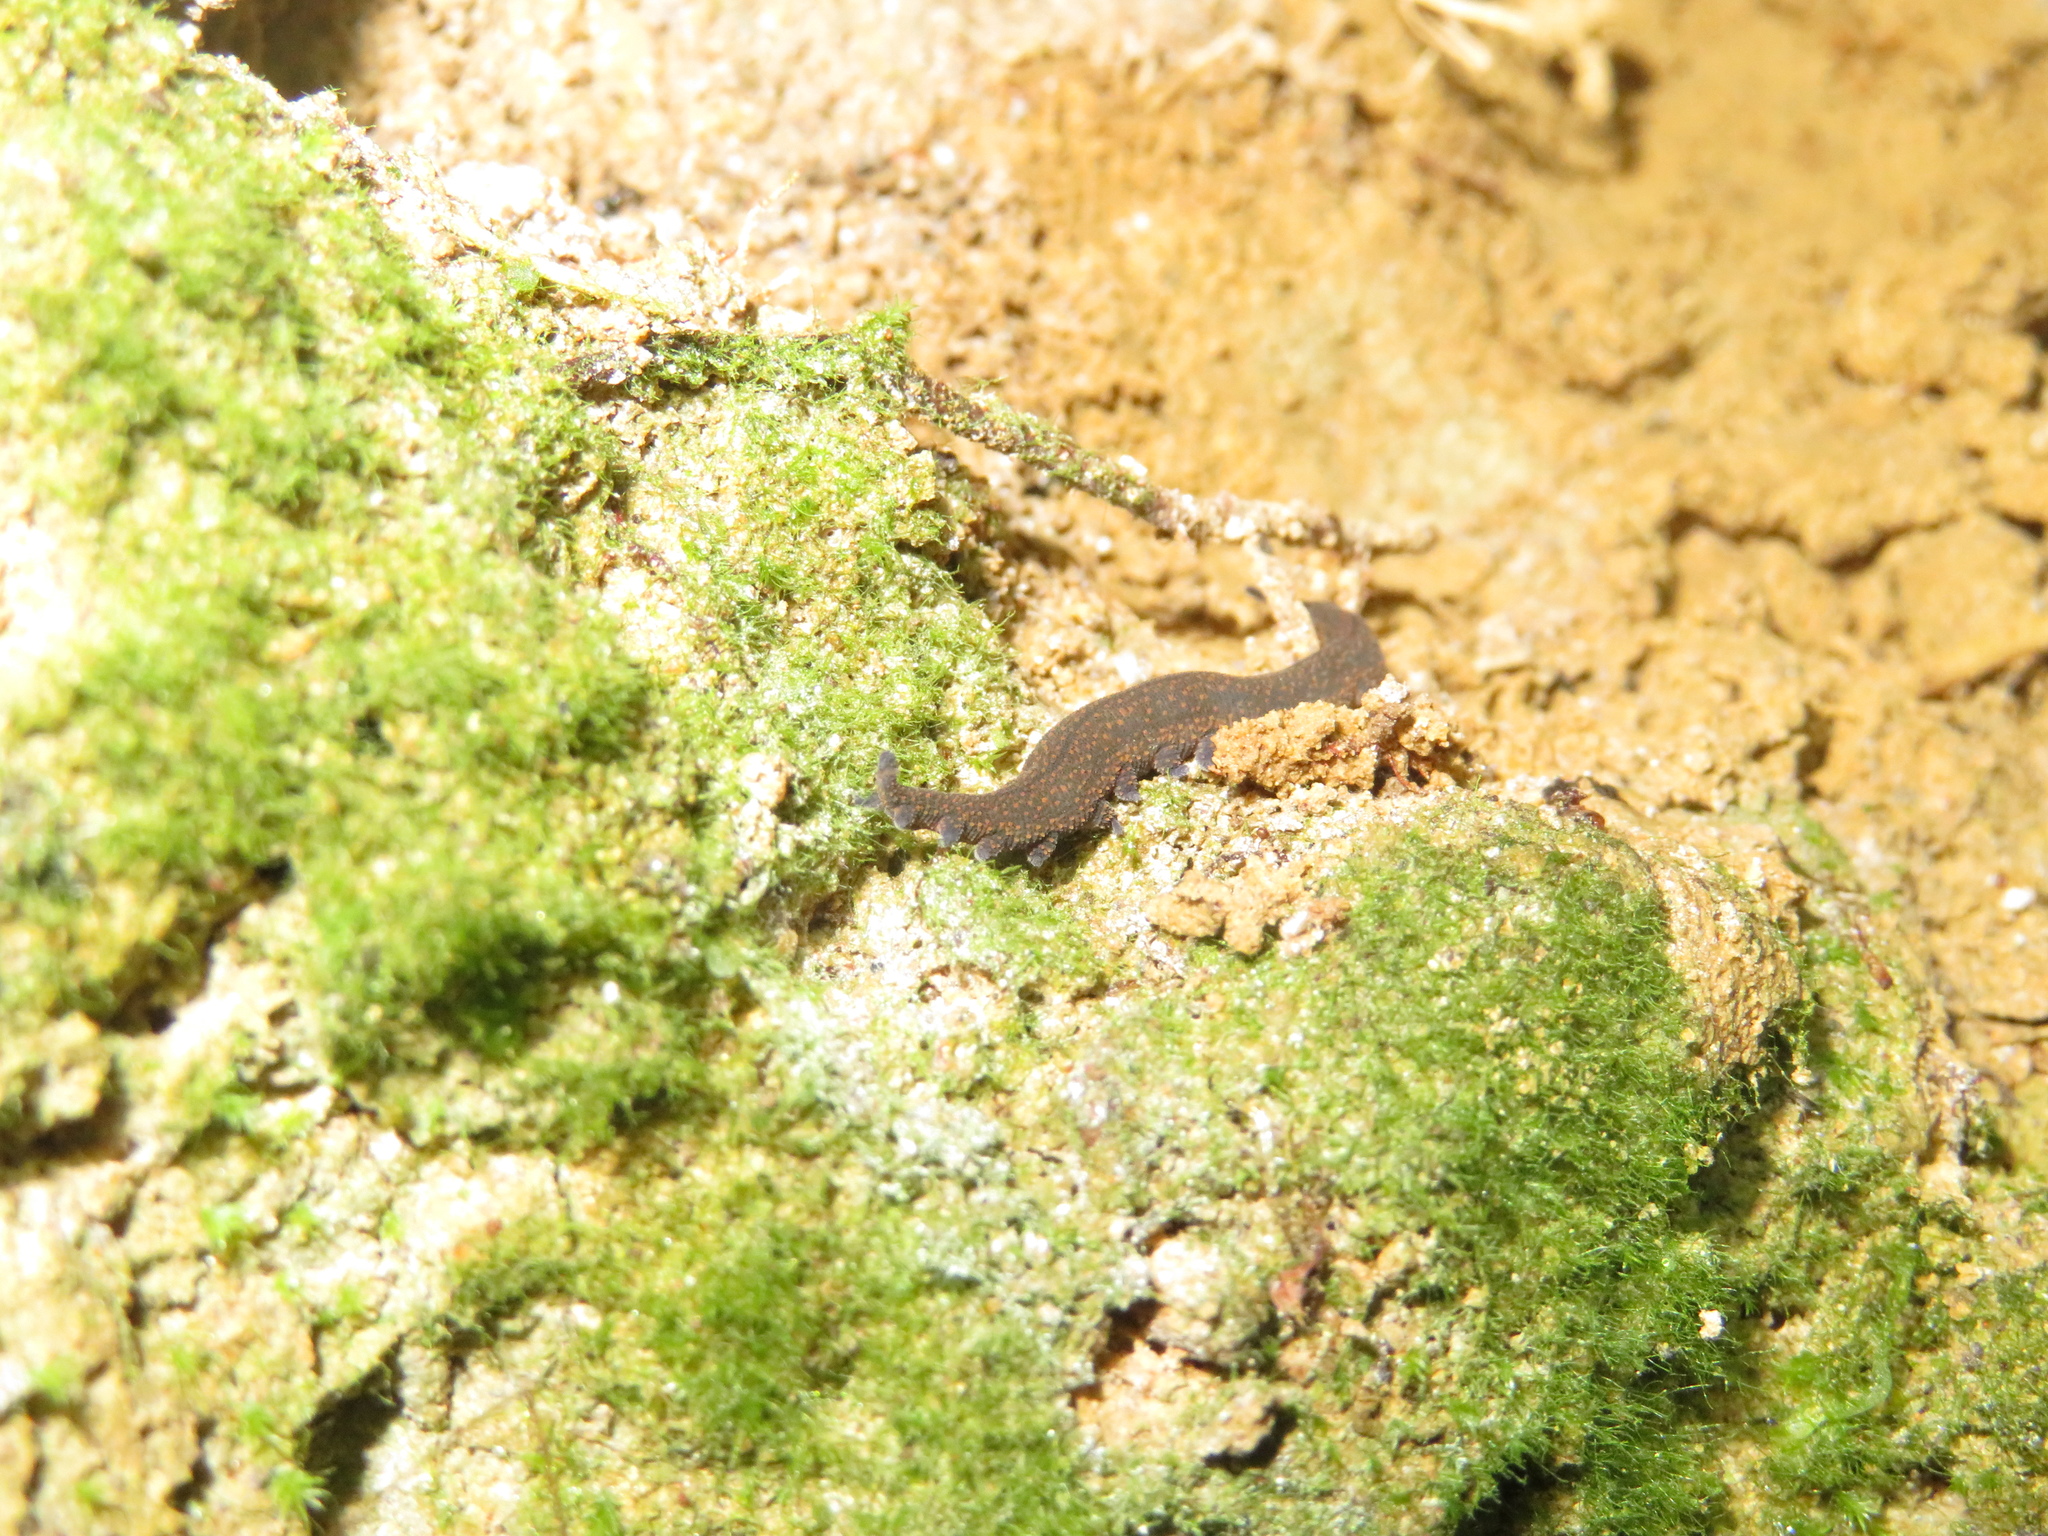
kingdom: Animalia
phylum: Onychophora
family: Peripatopsidae
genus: Peripatoides
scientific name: Peripatoides novaezealandiae
